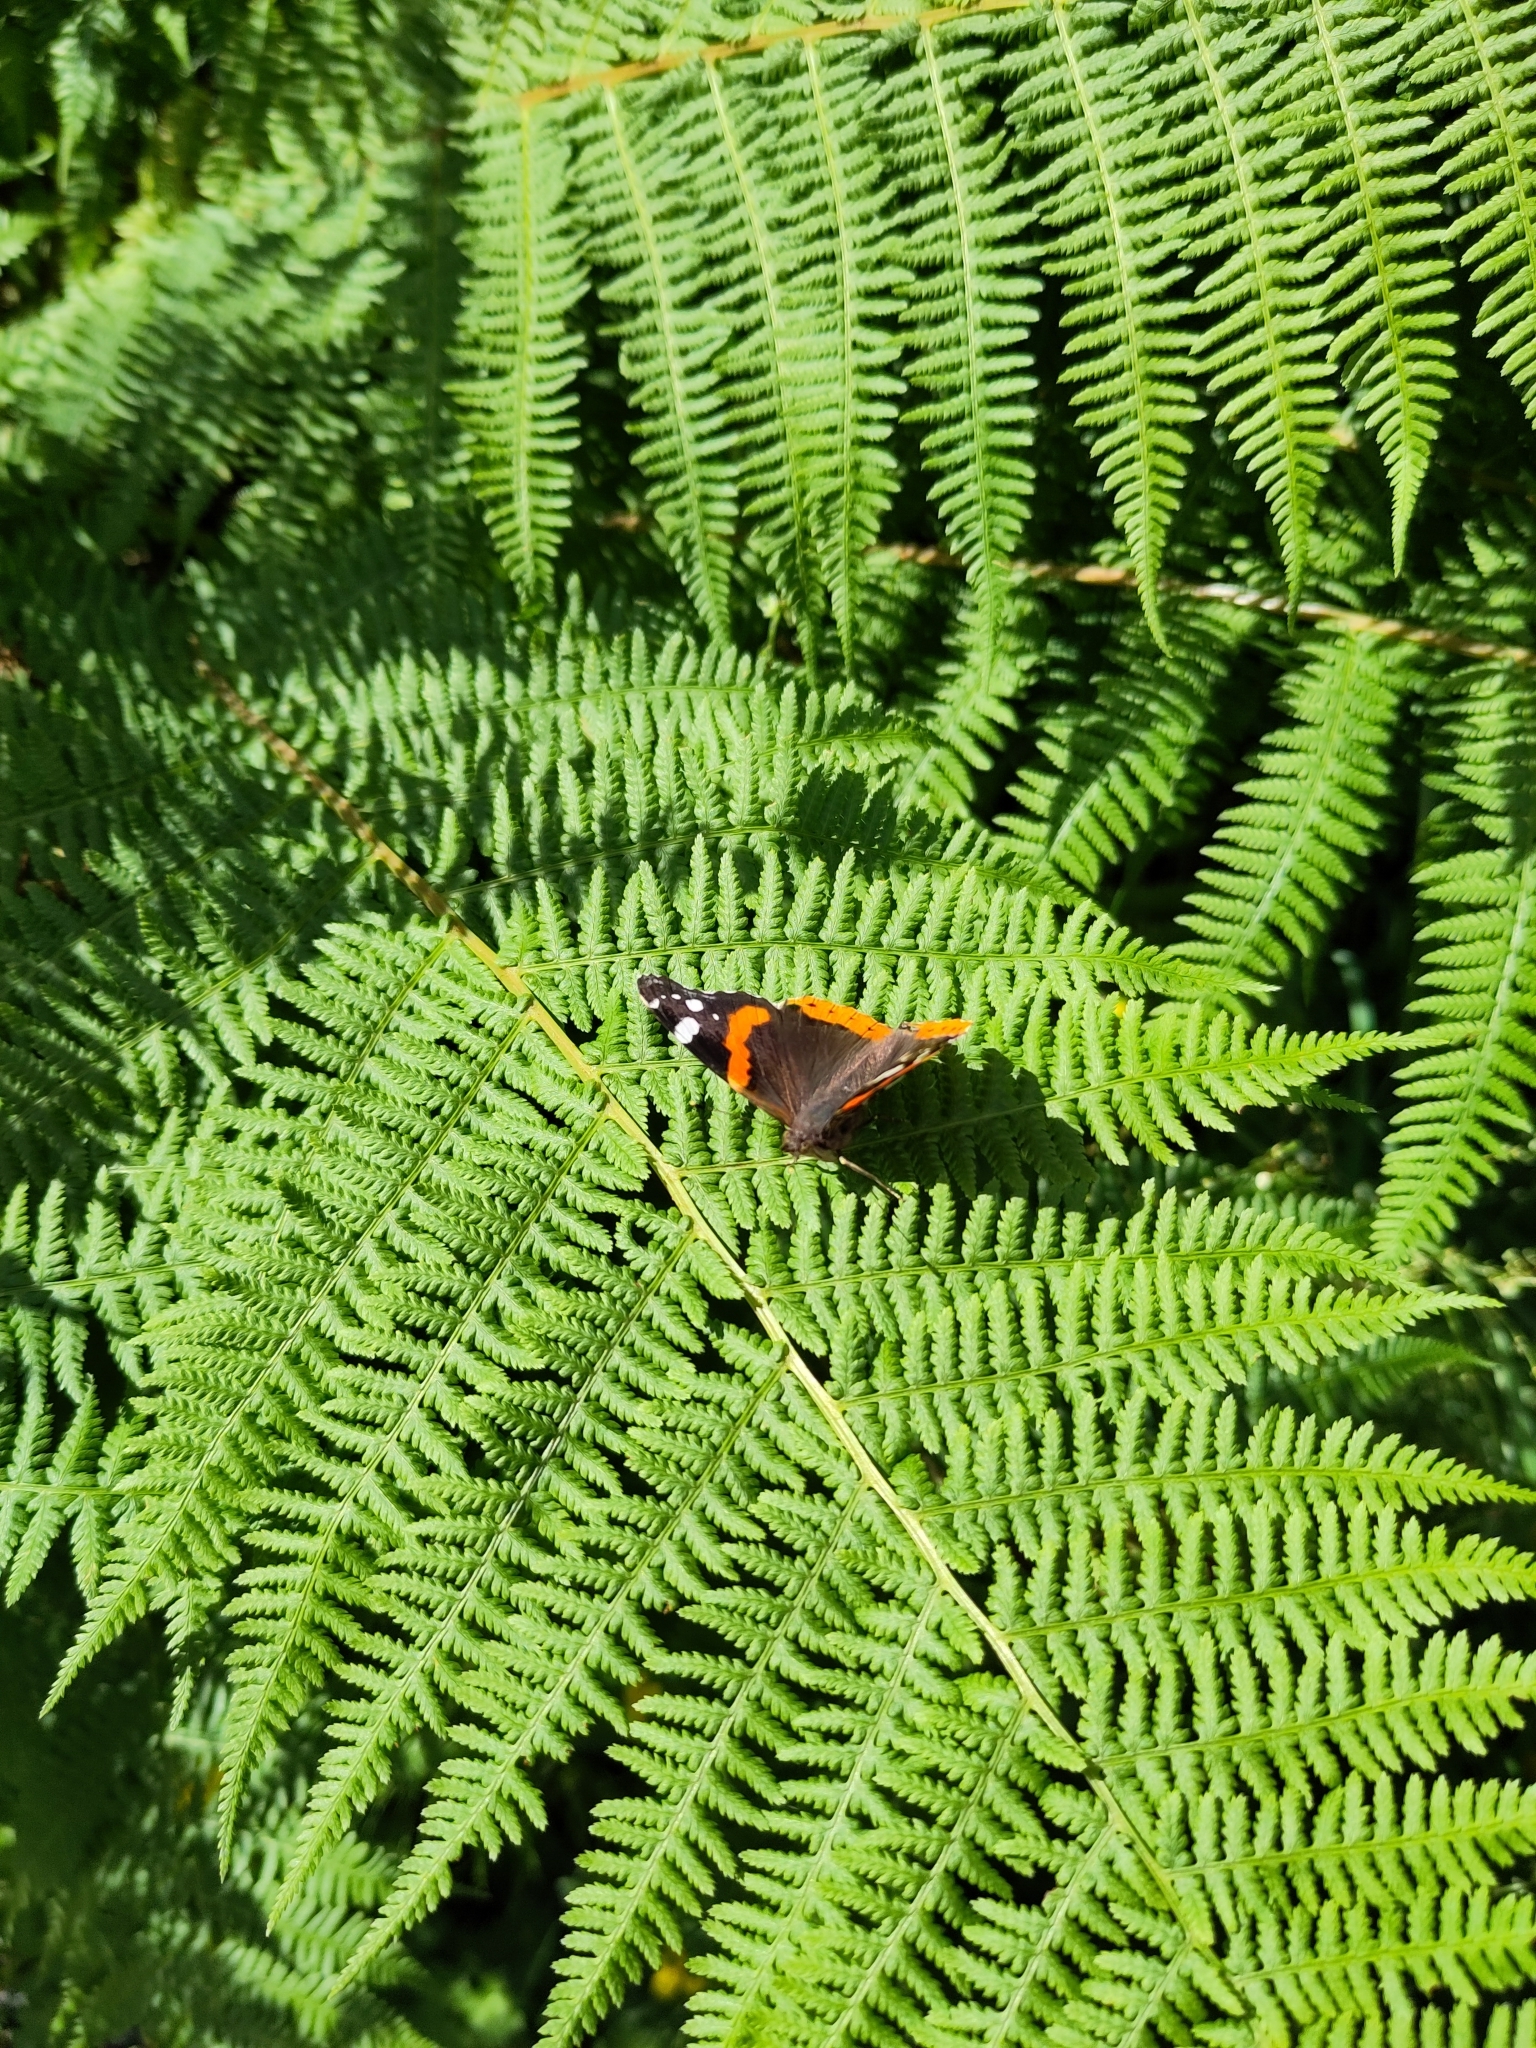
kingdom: Animalia
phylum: Arthropoda
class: Insecta
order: Lepidoptera
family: Nymphalidae
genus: Vanessa
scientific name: Vanessa atalanta
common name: Red admiral
